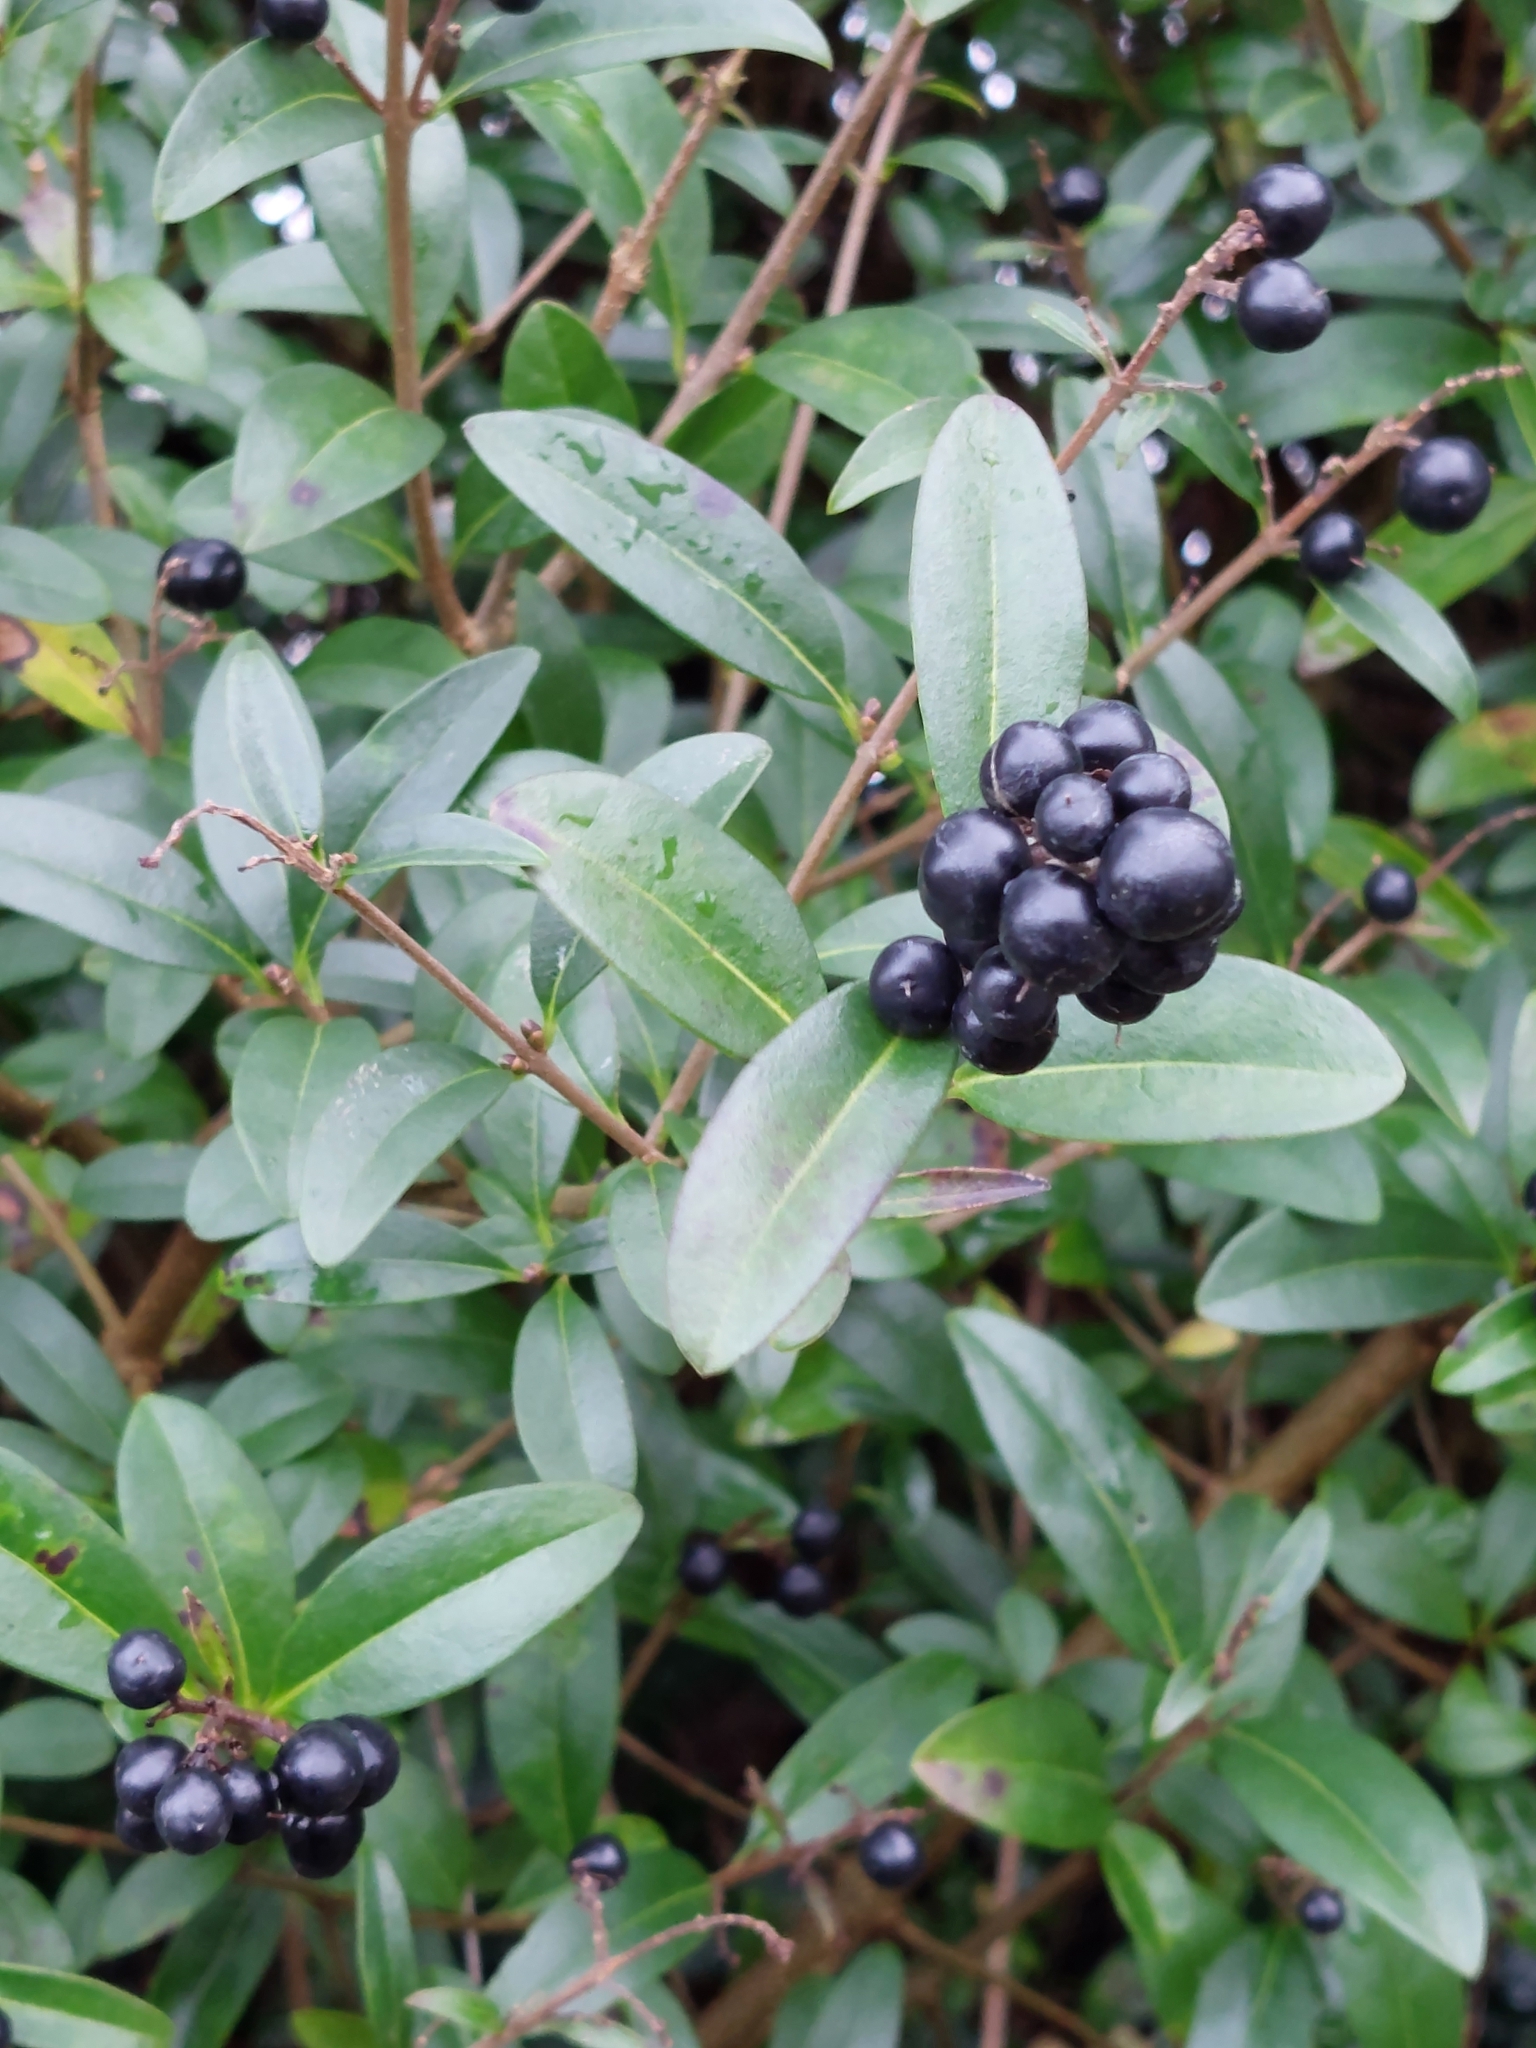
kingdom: Plantae
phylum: Tracheophyta
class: Magnoliopsida
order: Lamiales
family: Oleaceae
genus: Ligustrum
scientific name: Ligustrum vulgare
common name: Wild privet
